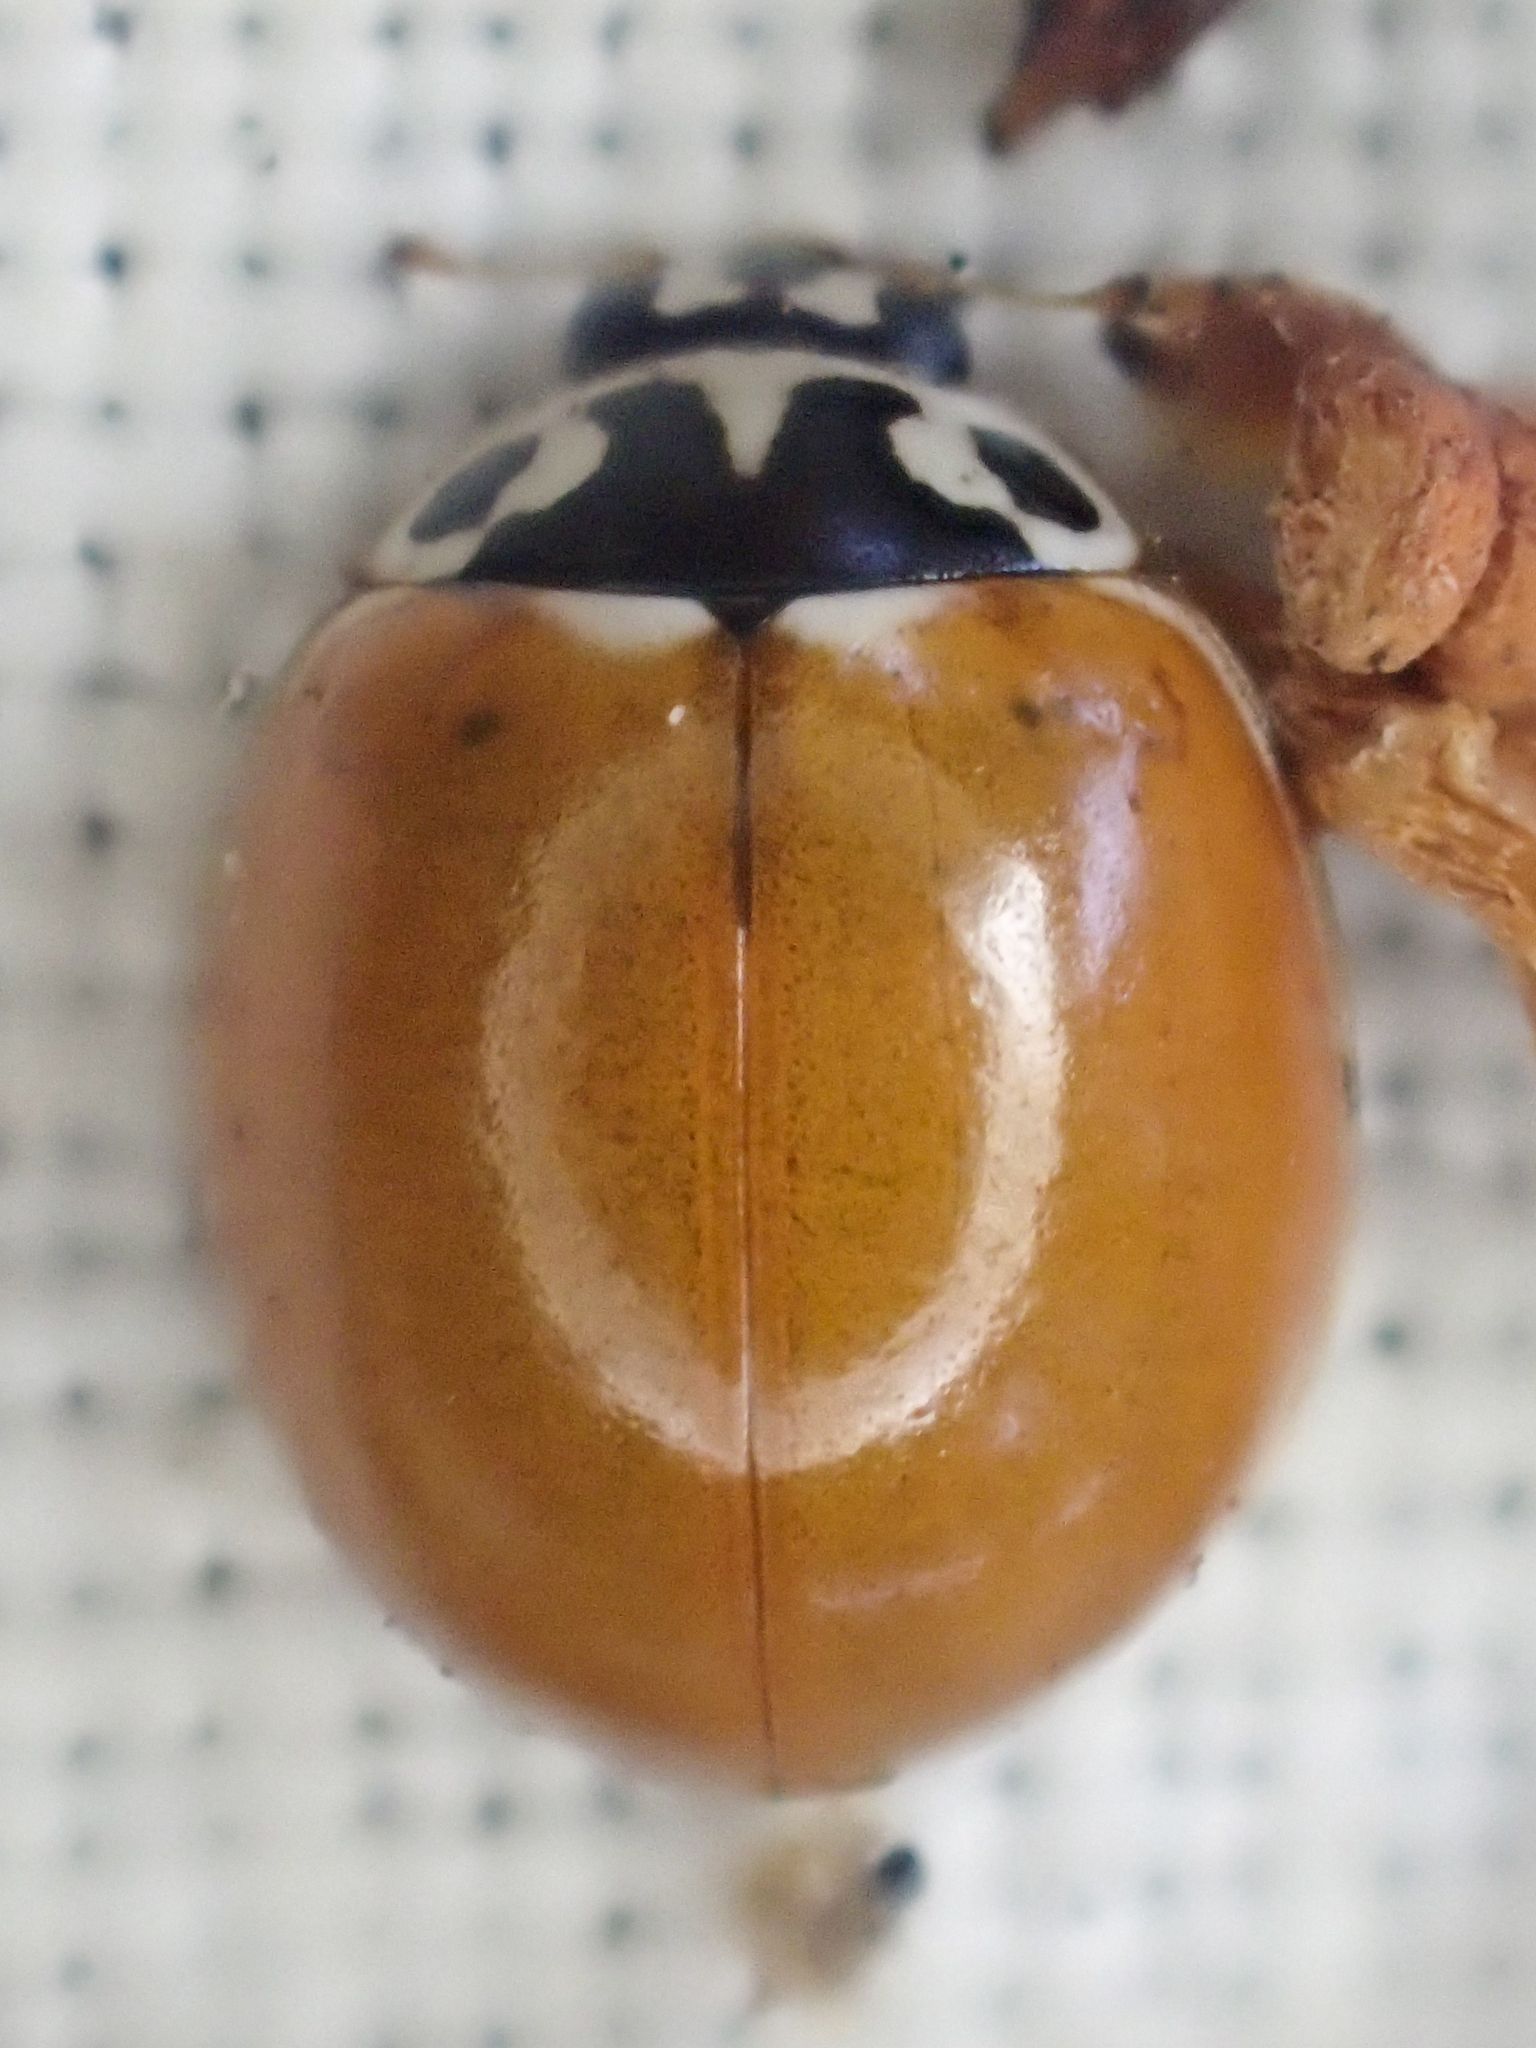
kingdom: Animalia
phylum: Arthropoda
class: Insecta
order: Coleoptera
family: Coccinellidae
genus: Cycloneda
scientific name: Cycloneda polita
